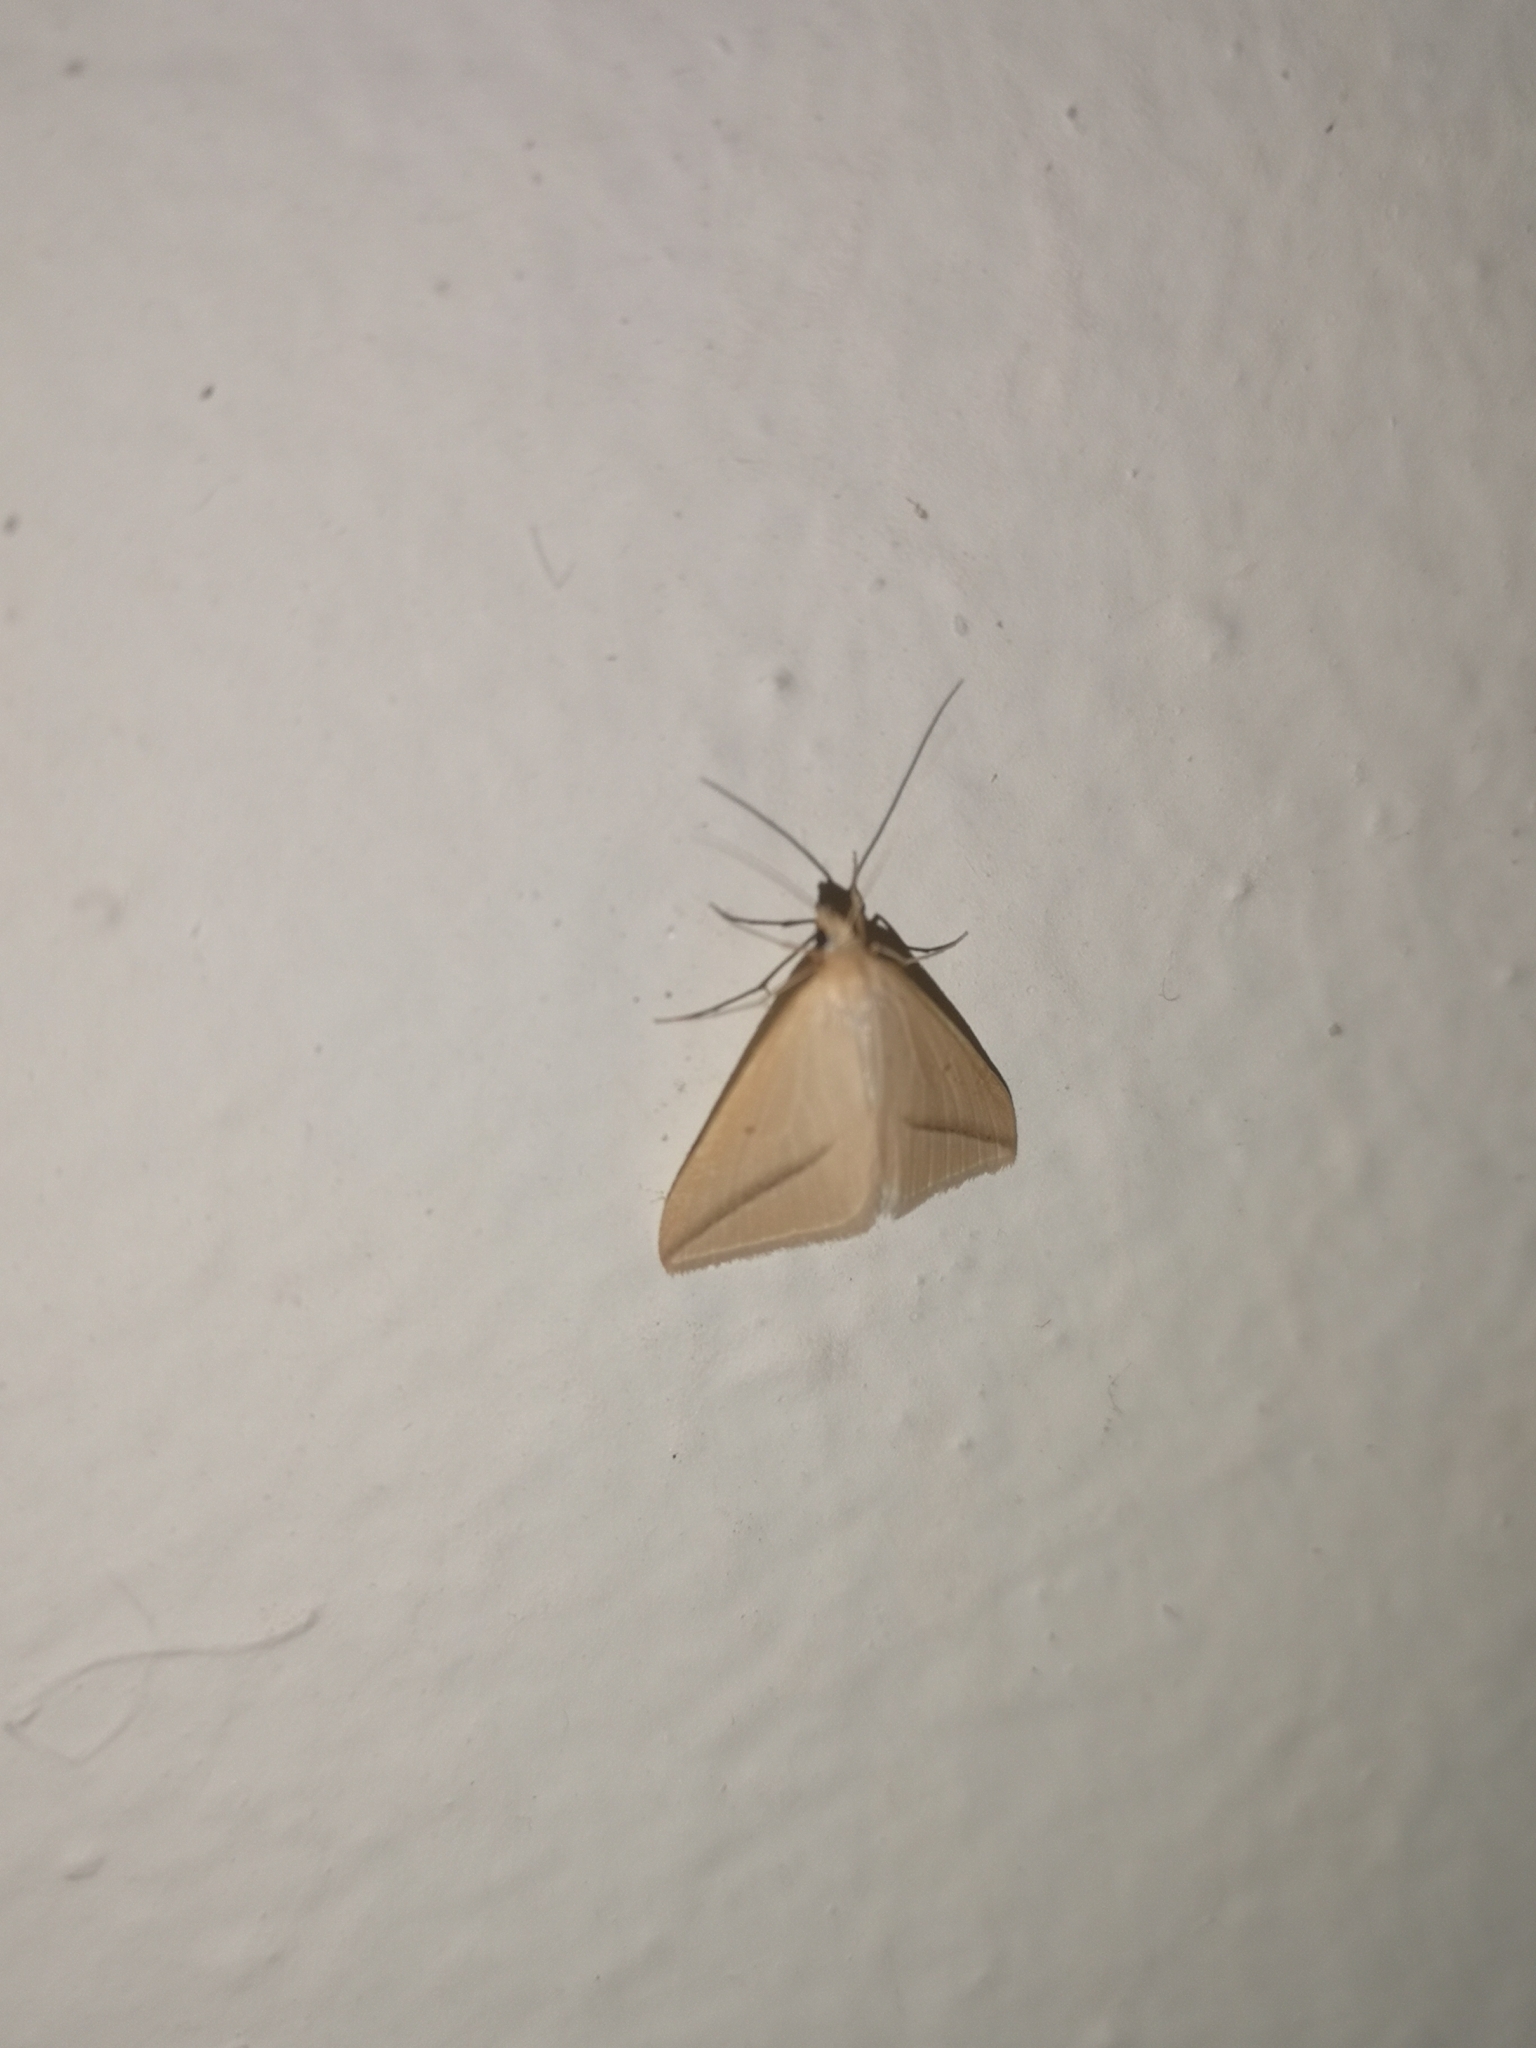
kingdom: Animalia
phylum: Arthropoda
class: Insecta
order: Lepidoptera
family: Geometridae
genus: Rhodometra
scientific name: Rhodometra sacraria
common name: Vestal
